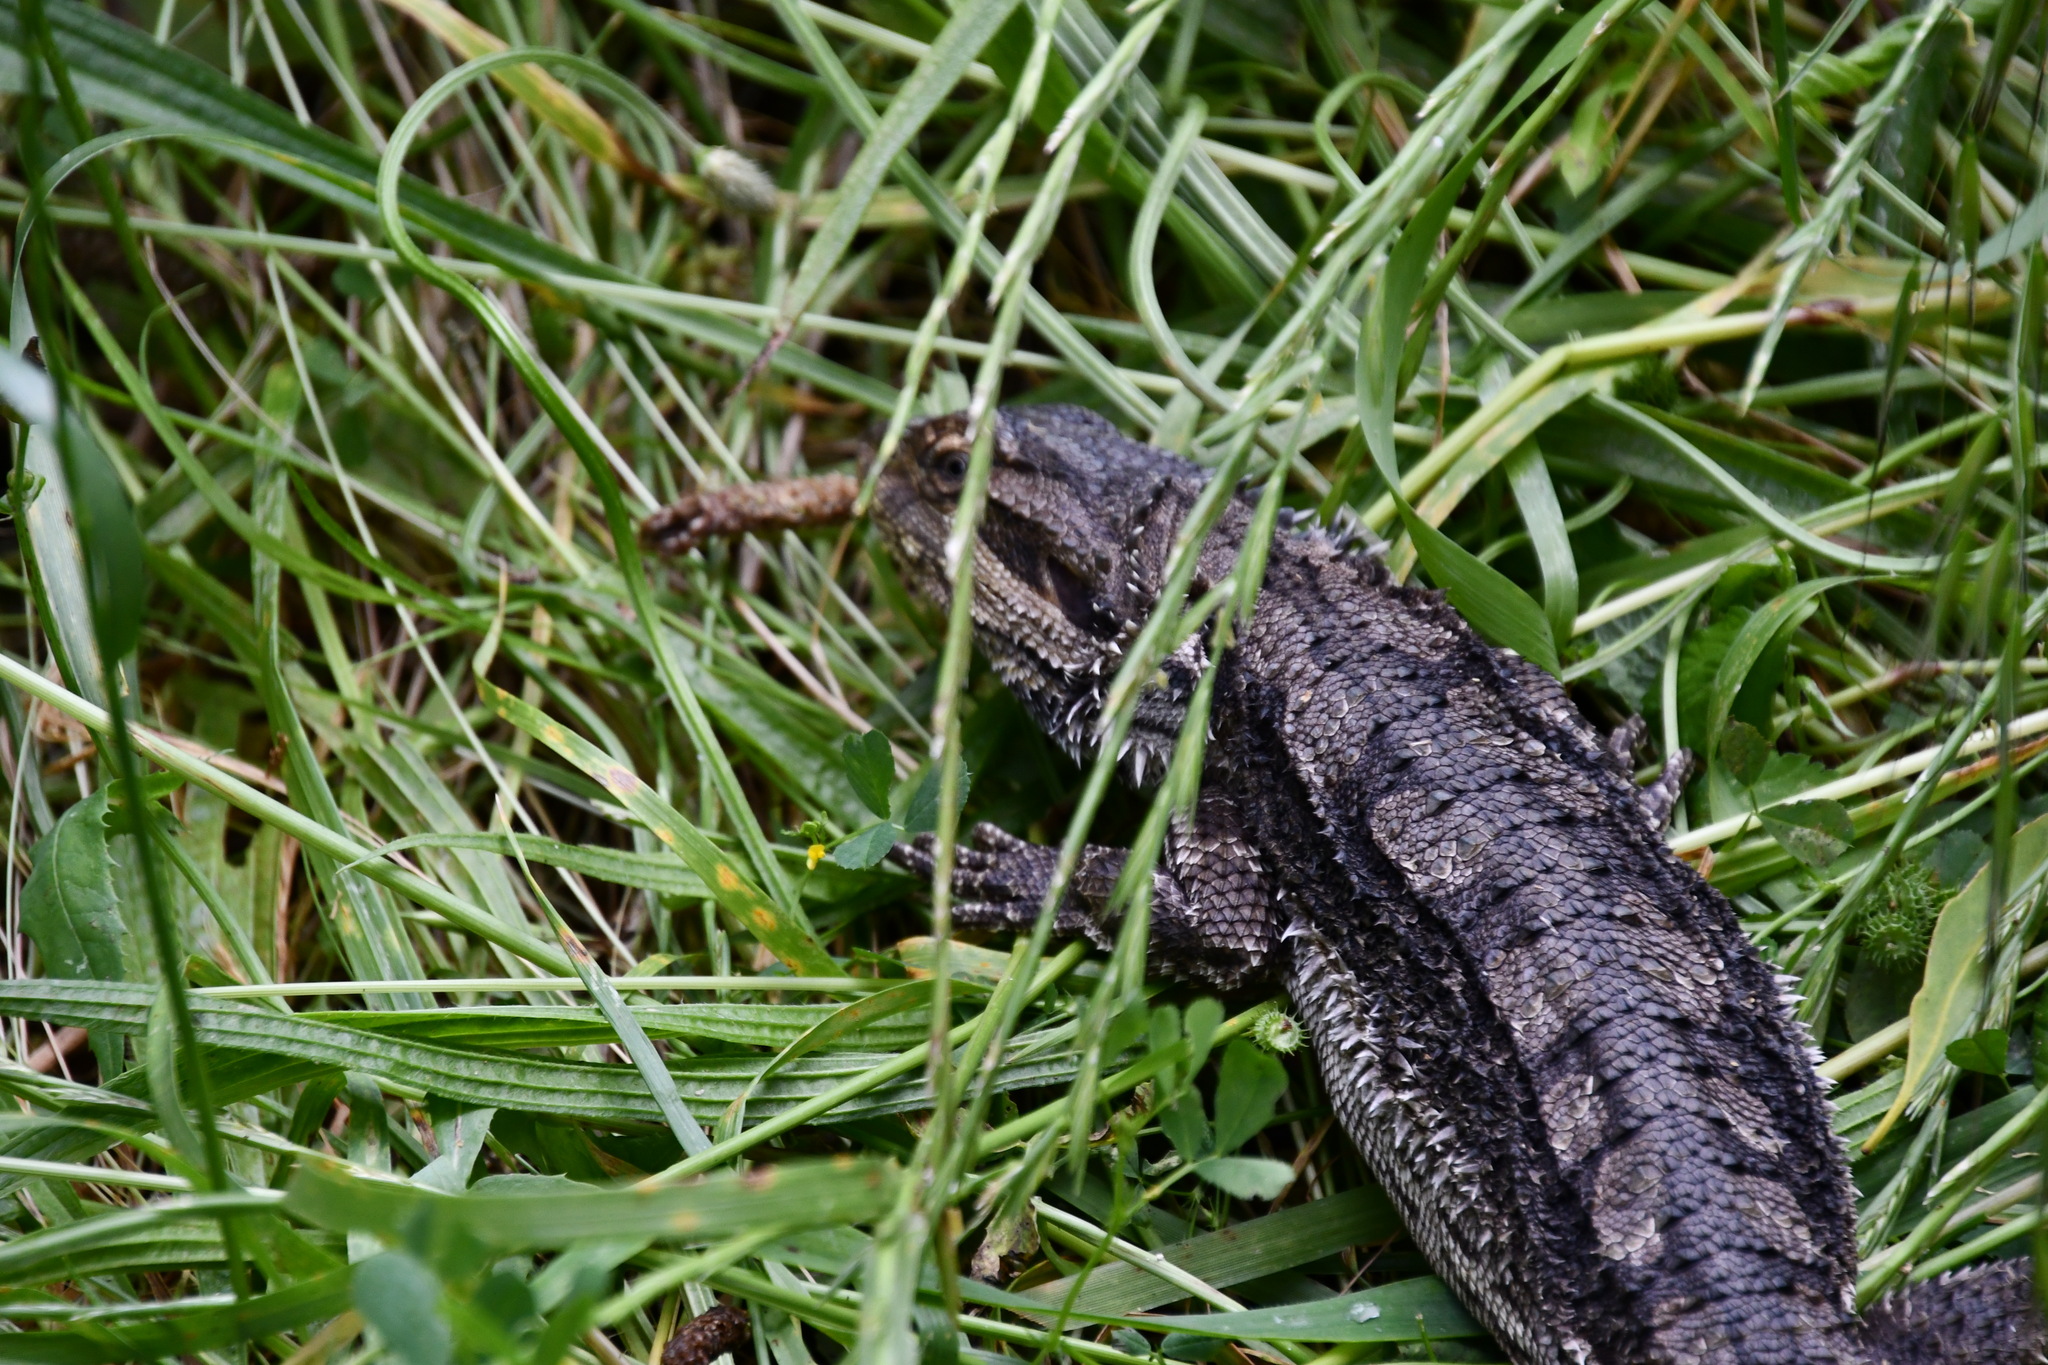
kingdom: Animalia
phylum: Chordata
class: Squamata
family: Agamidae
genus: Pogona
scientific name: Pogona barbata
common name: Bearded dragon
